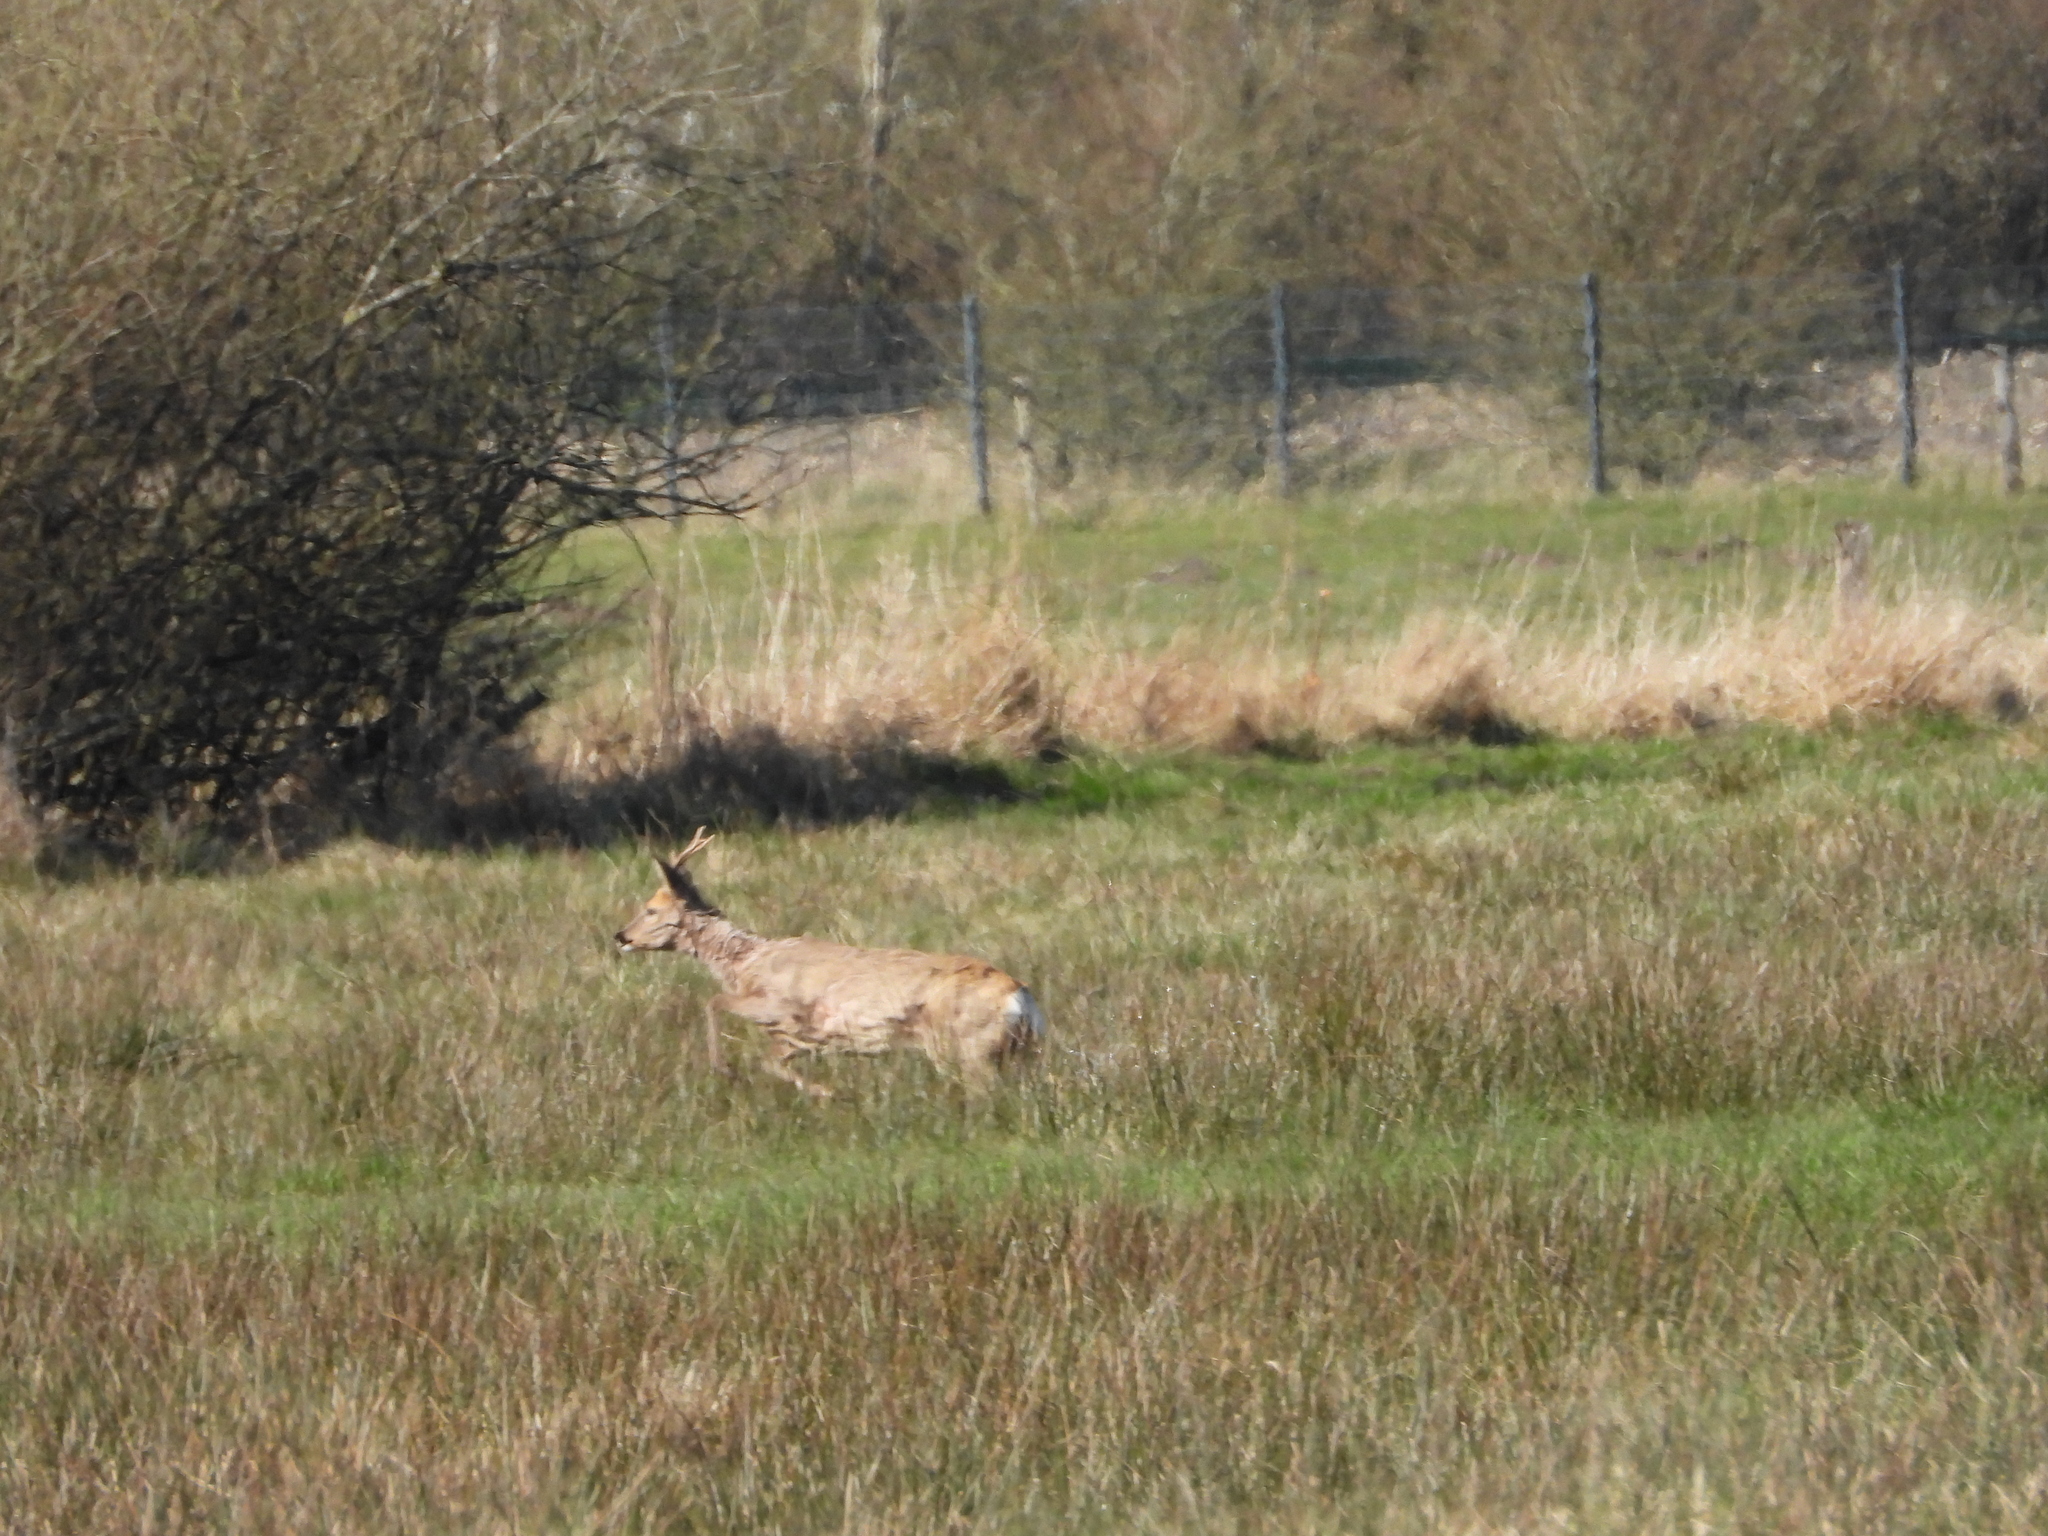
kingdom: Animalia
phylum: Chordata
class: Mammalia
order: Artiodactyla
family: Cervidae
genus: Capreolus
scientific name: Capreolus capreolus
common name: Western roe deer
